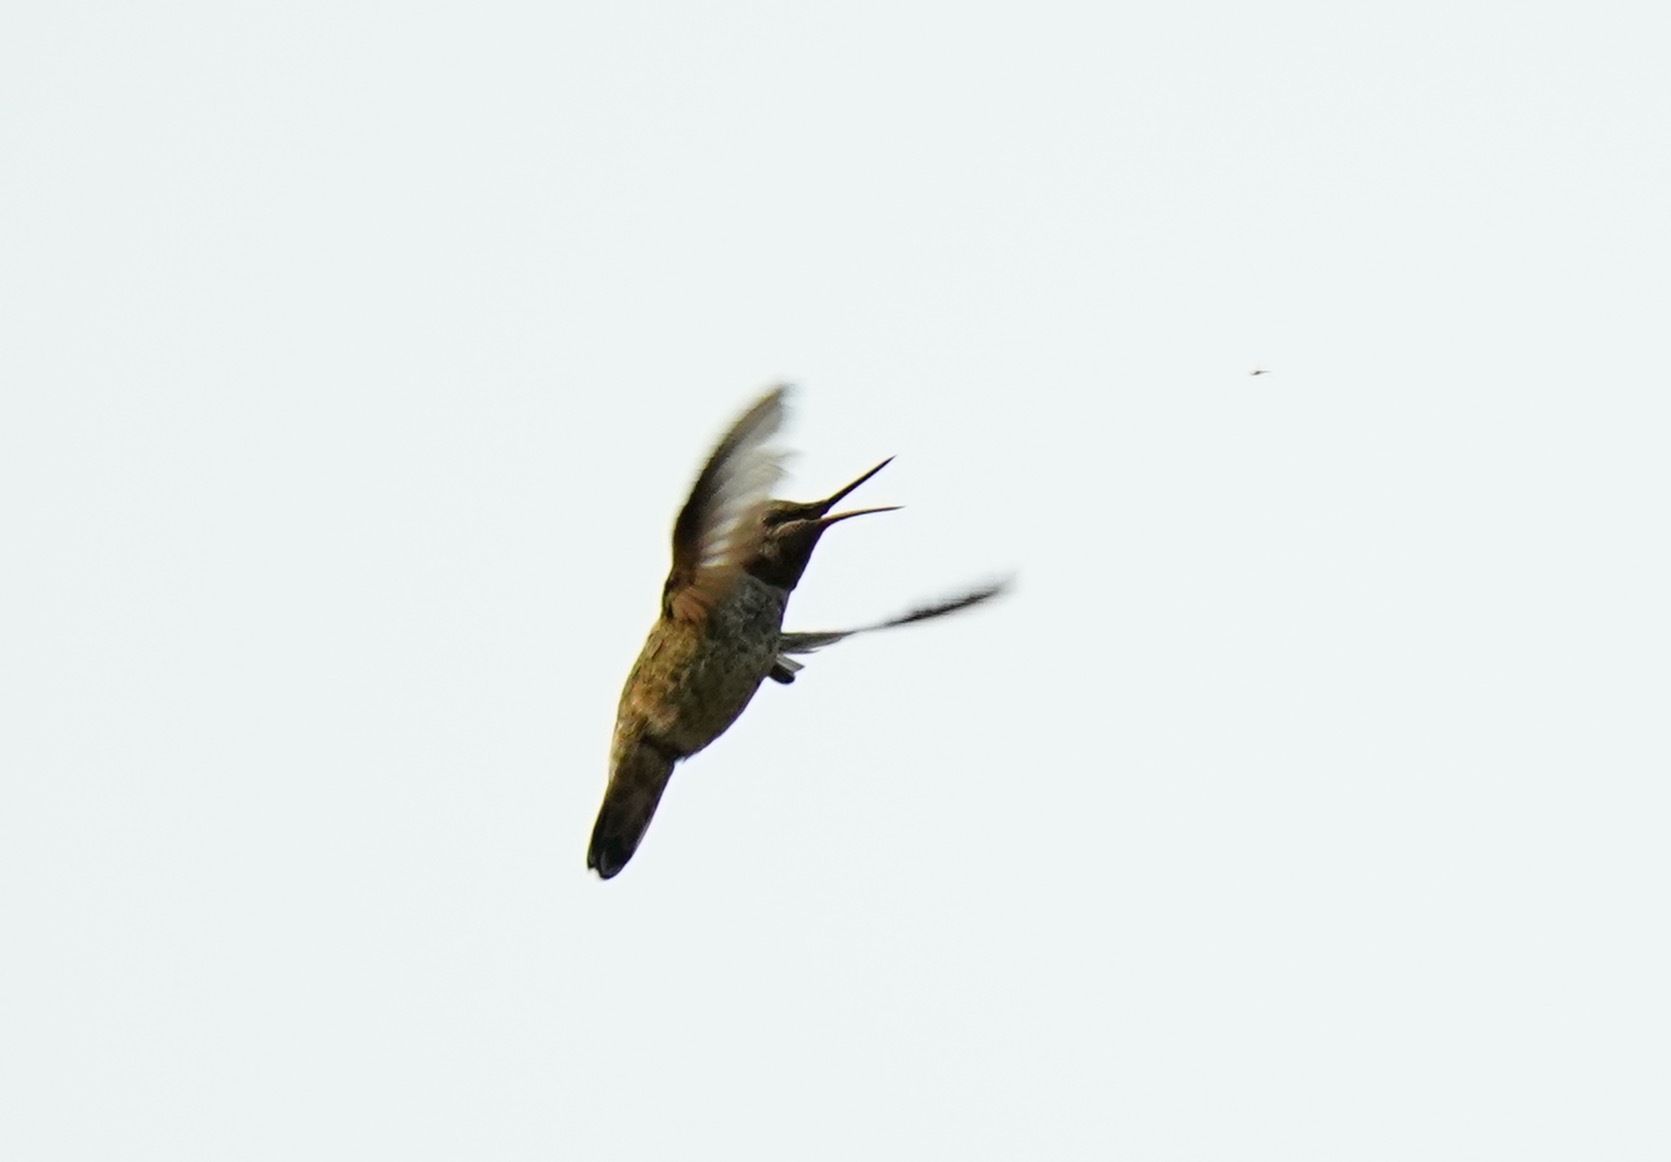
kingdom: Animalia
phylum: Chordata
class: Aves
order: Apodiformes
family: Trochilidae
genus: Calypte
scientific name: Calypte anna
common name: Anna's hummingbird
